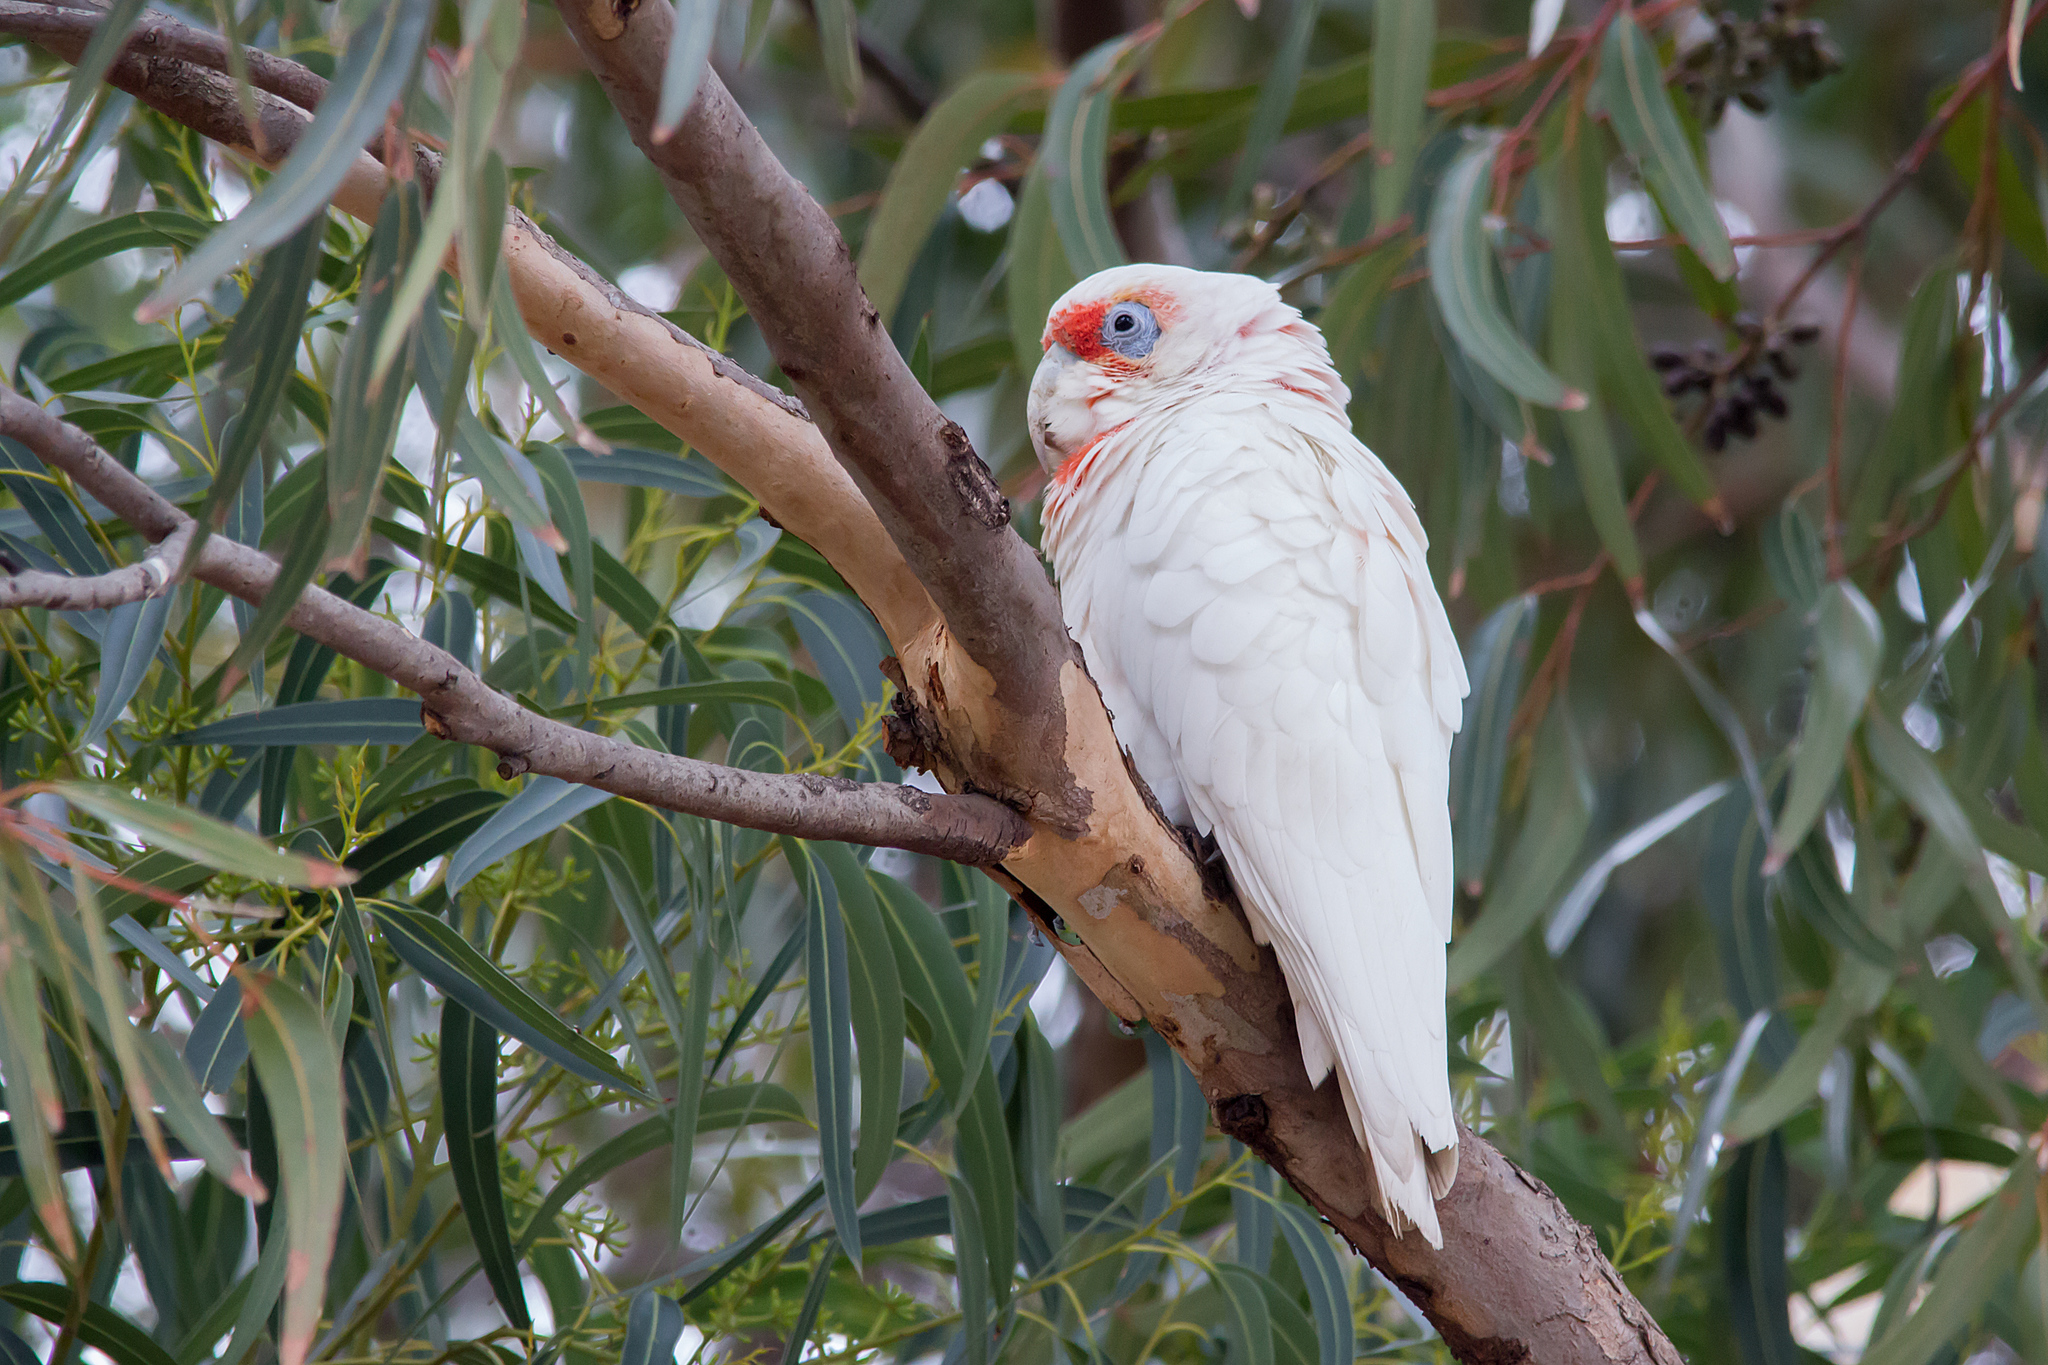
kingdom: Animalia
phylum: Chordata
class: Aves
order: Psittaciformes
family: Psittacidae
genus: Cacatua
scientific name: Cacatua tenuirostris
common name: Long-billed corella
